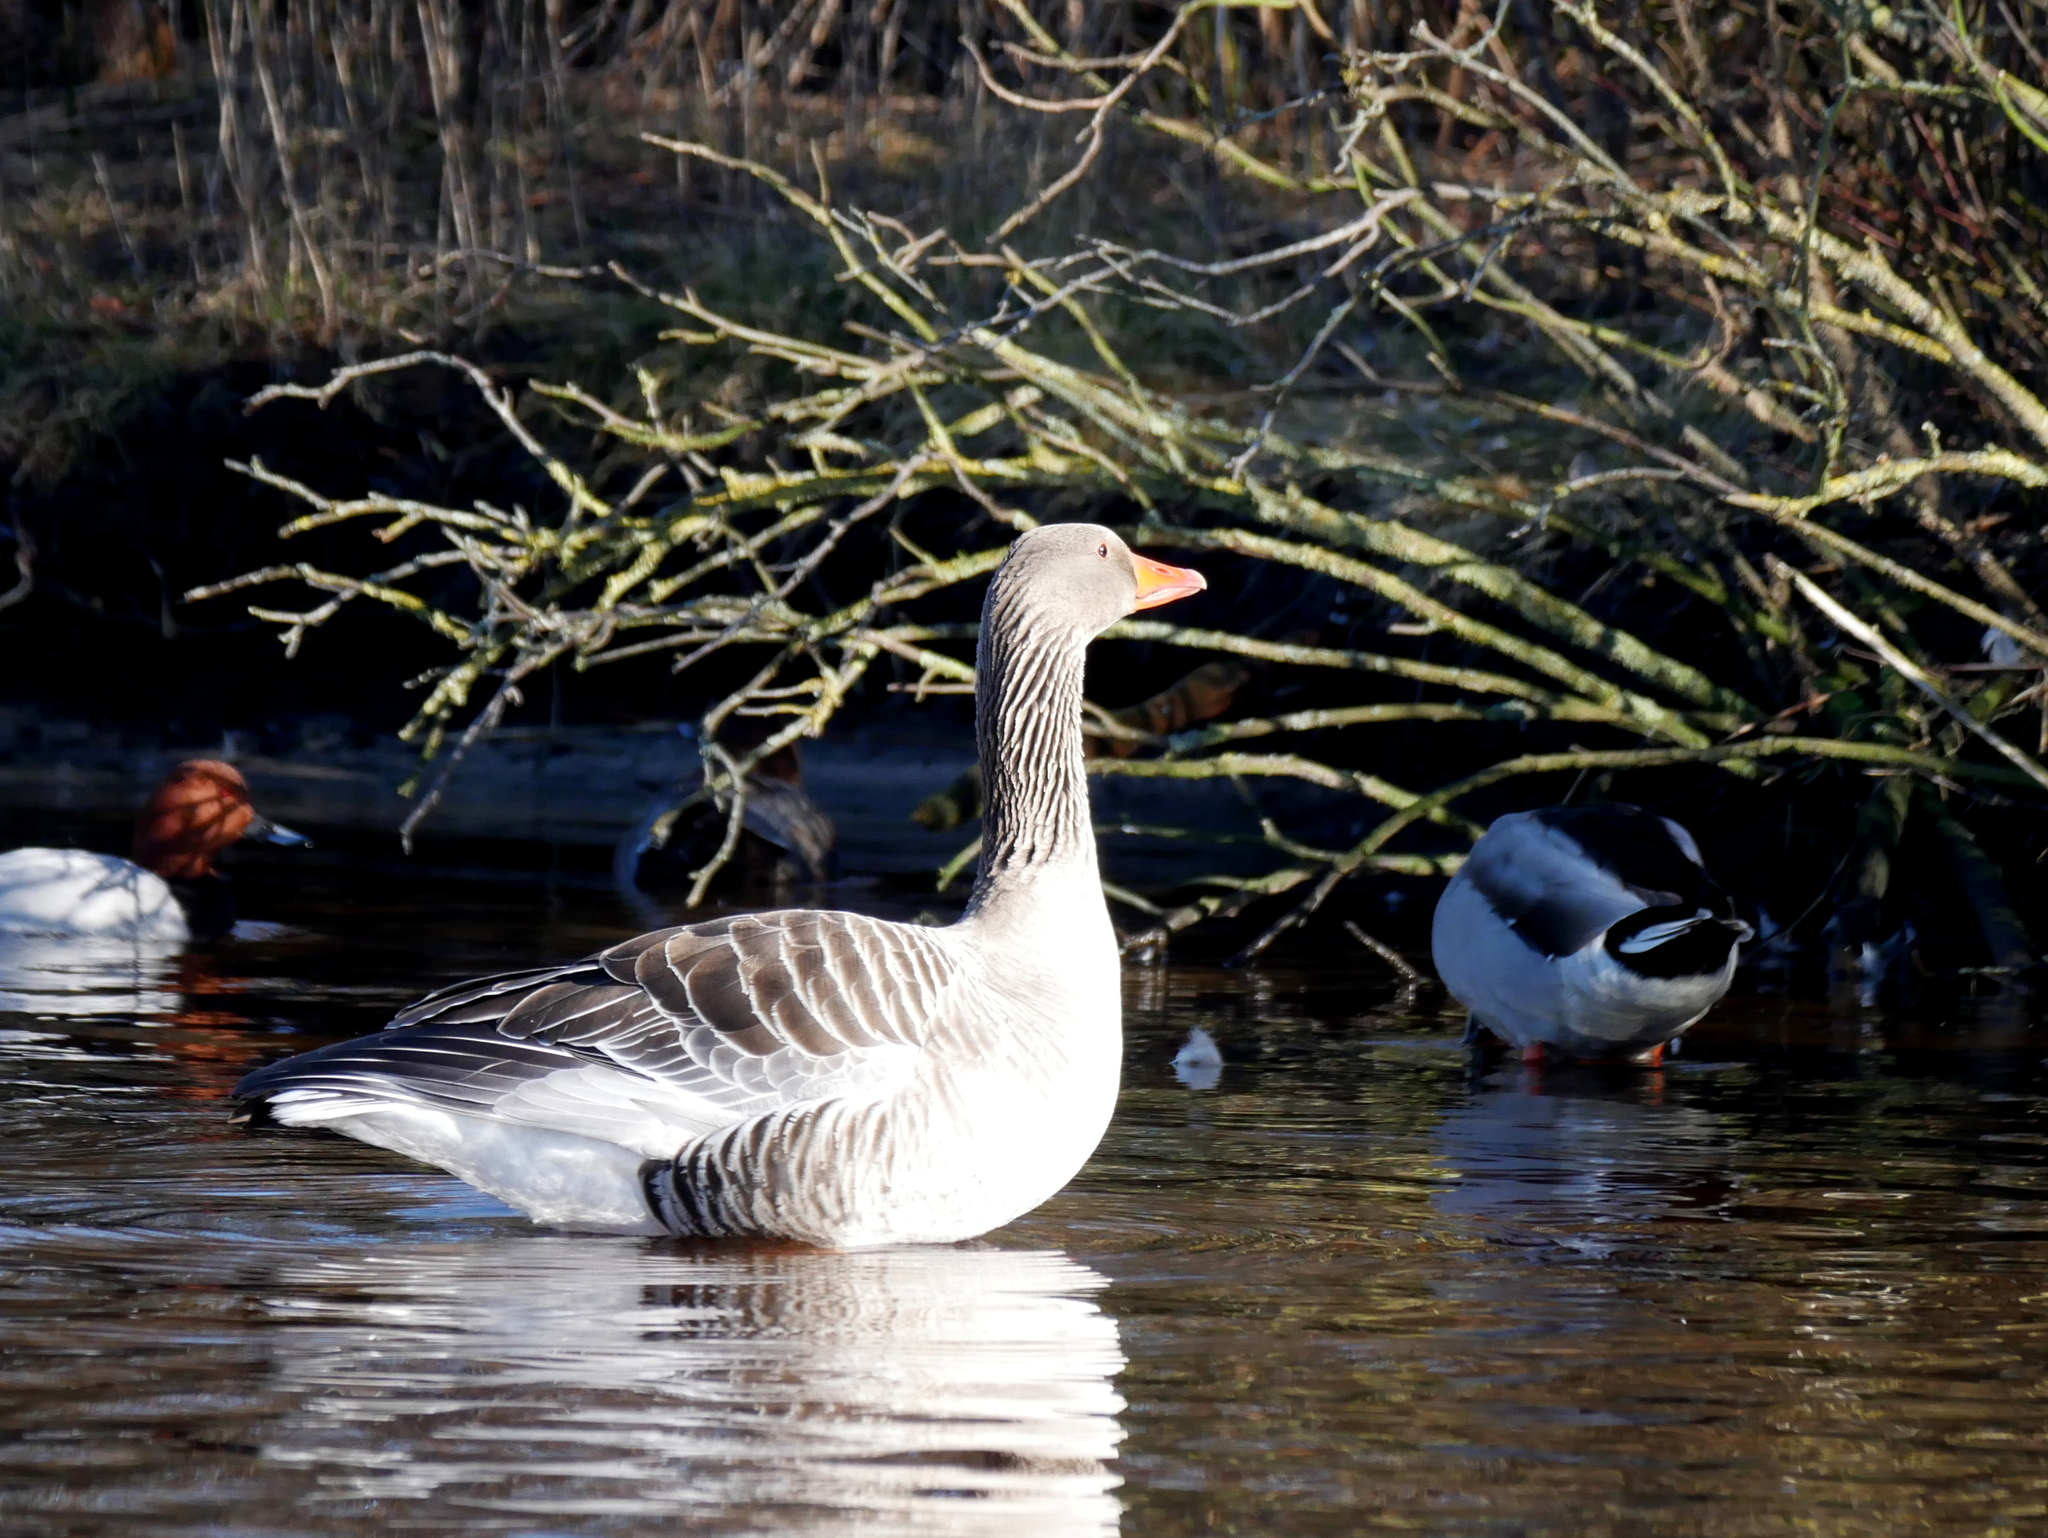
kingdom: Animalia
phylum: Chordata
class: Aves
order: Anseriformes
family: Anatidae
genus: Anser
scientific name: Anser anser
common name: Greylag goose
